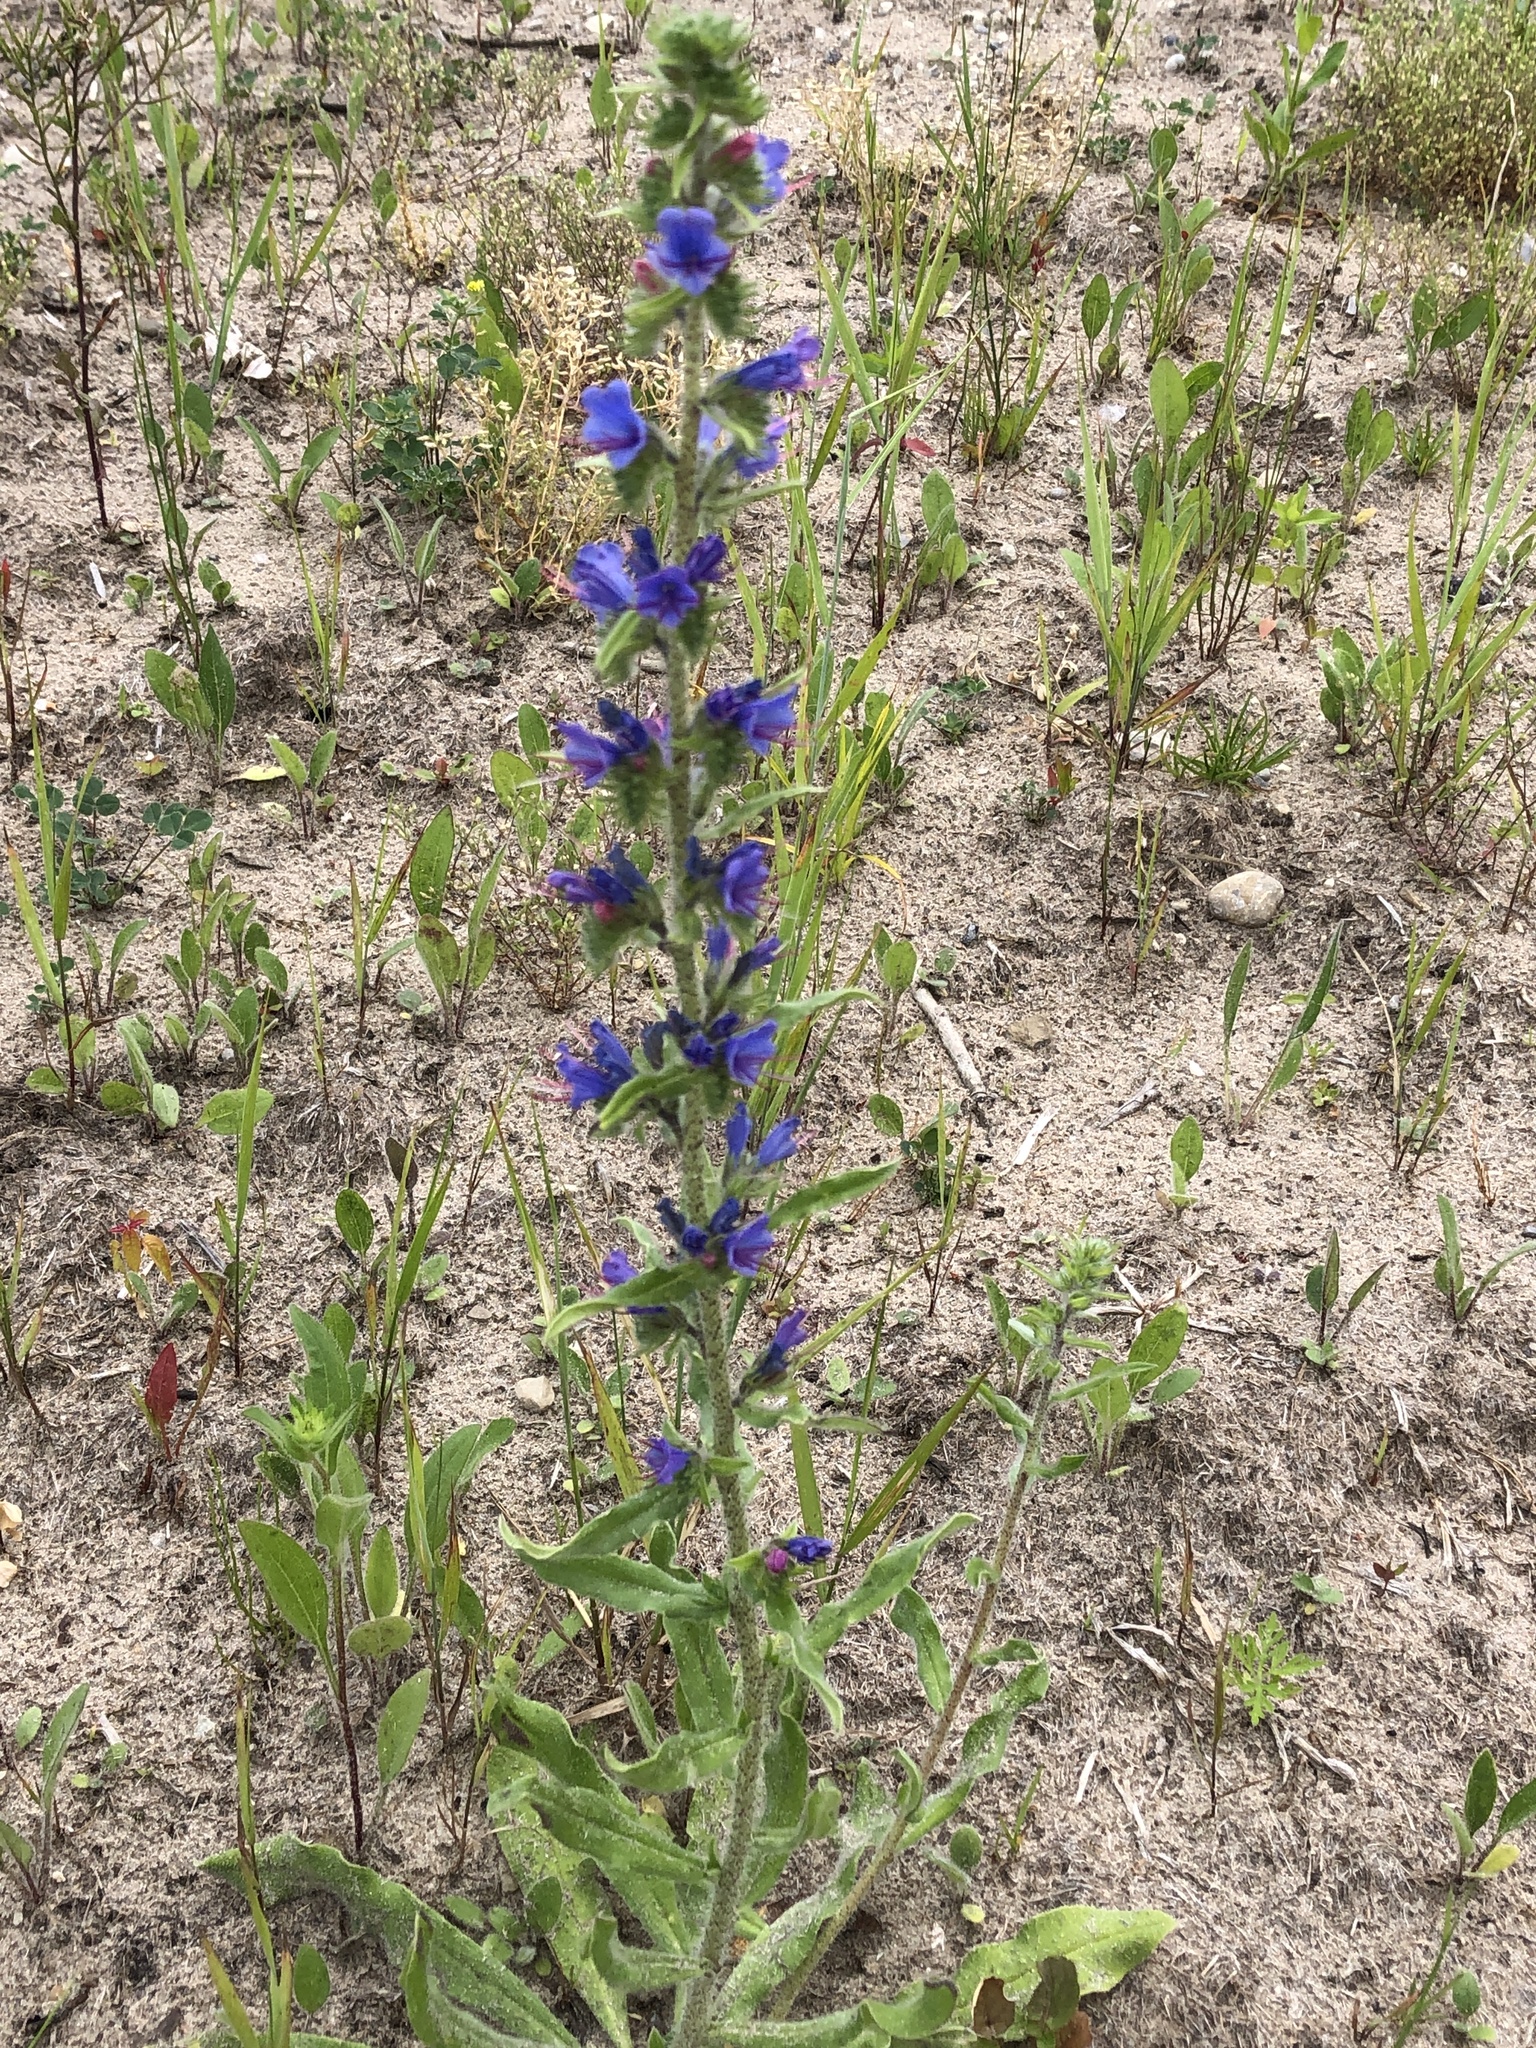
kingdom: Plantae
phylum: Tracheophyta
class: Magnoliopsida
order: Boraginales
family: Boraginaceae
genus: Echium
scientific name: Echium vulgare
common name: Common viper's bugloss
